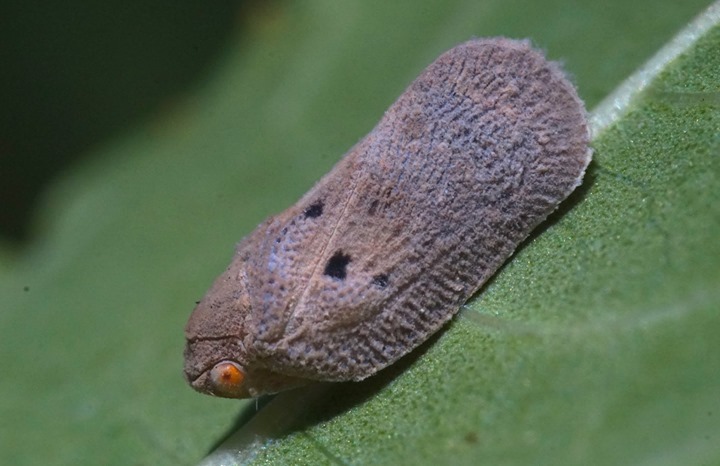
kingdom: Animalia
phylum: Arthropoda
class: Insecta
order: Hemiptera
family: Flatidae
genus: Melormenis
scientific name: Melormenis basalis
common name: Puerto rican planthopper
